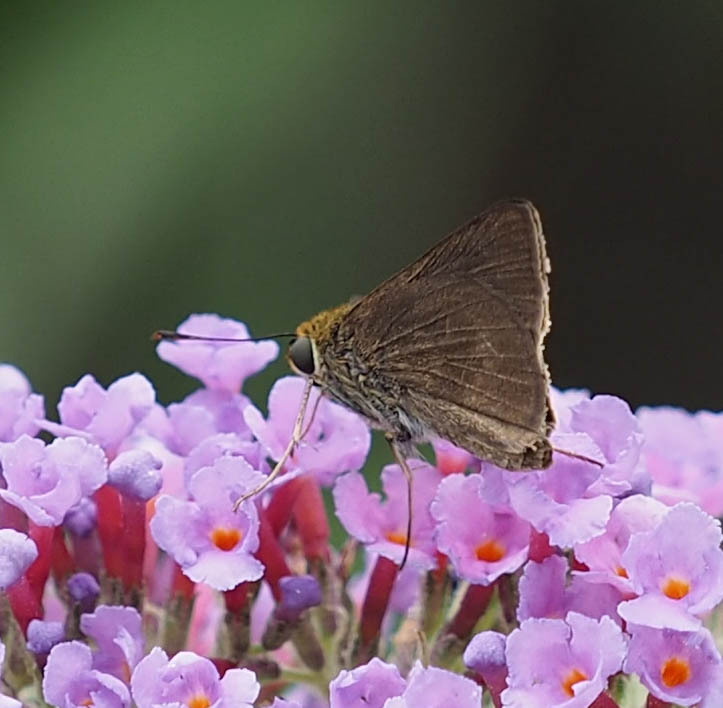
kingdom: Animalia
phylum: Arthropoda
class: Insecta
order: Lepidoptera
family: Hesperiidae
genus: Euphyes
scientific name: Euphyes vestris
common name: Dun skipper
